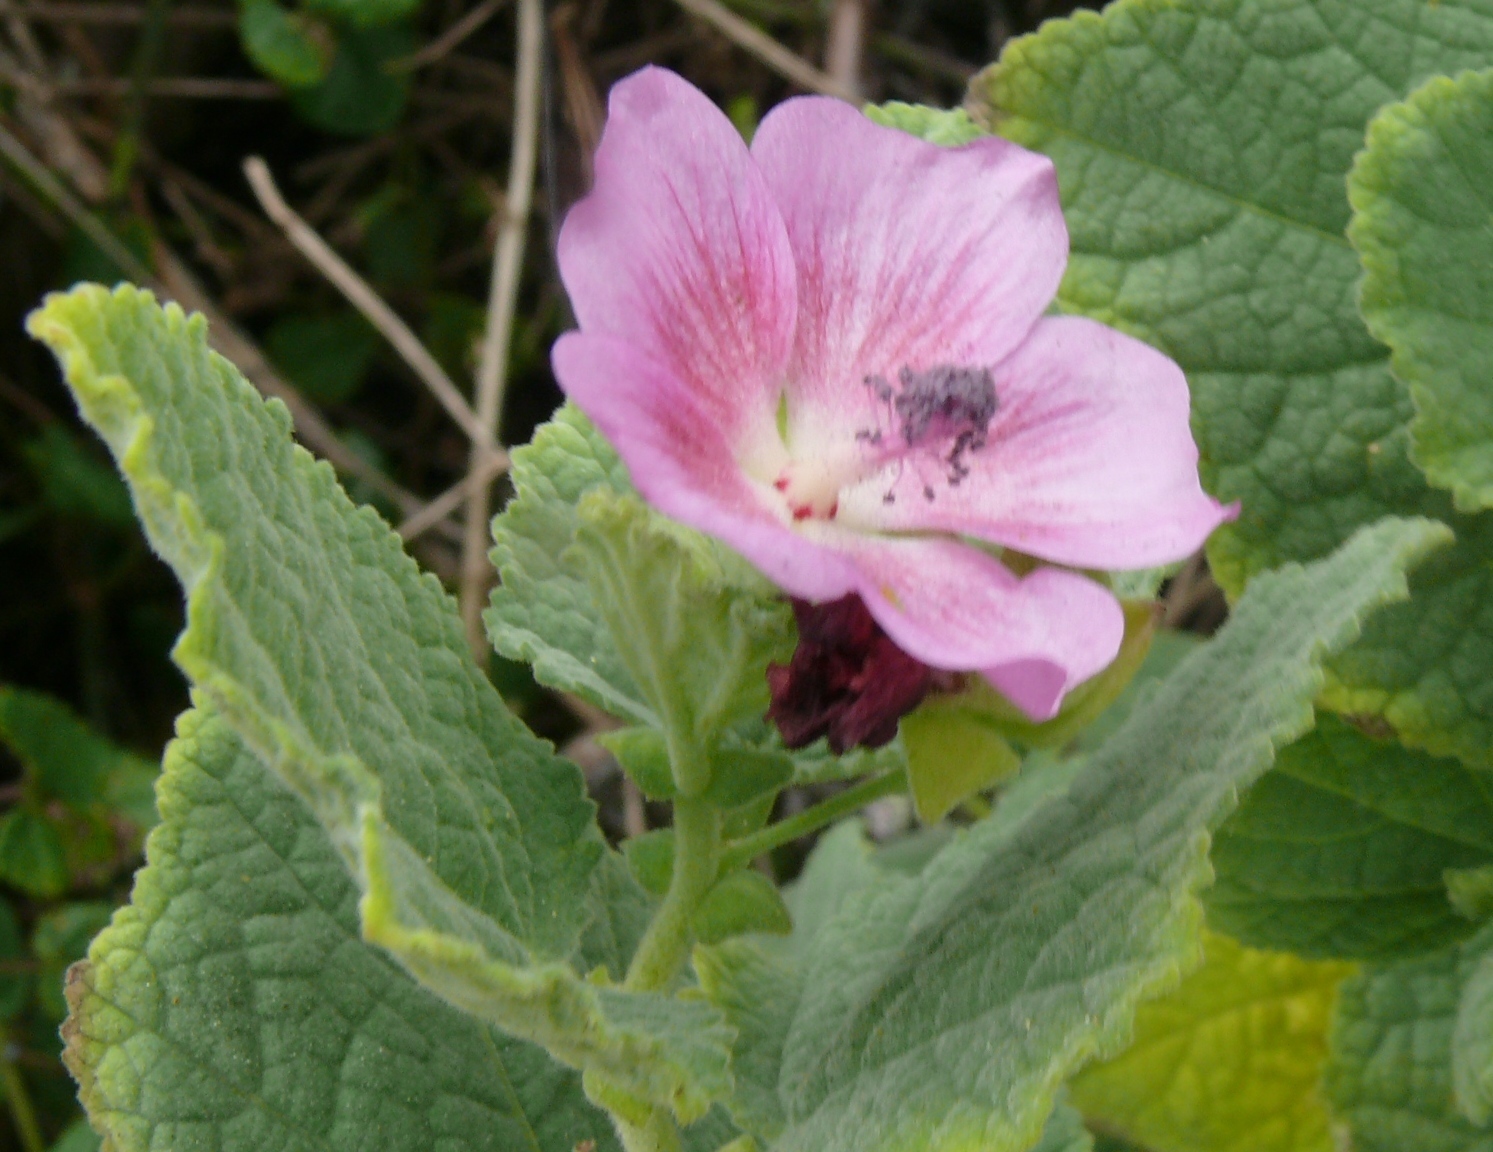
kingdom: Plantae
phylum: Tracheophyta
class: Magnoliopsida
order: Malvales
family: Malvaceae
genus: Anisodontea
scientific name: Anisodontea scabrosa
